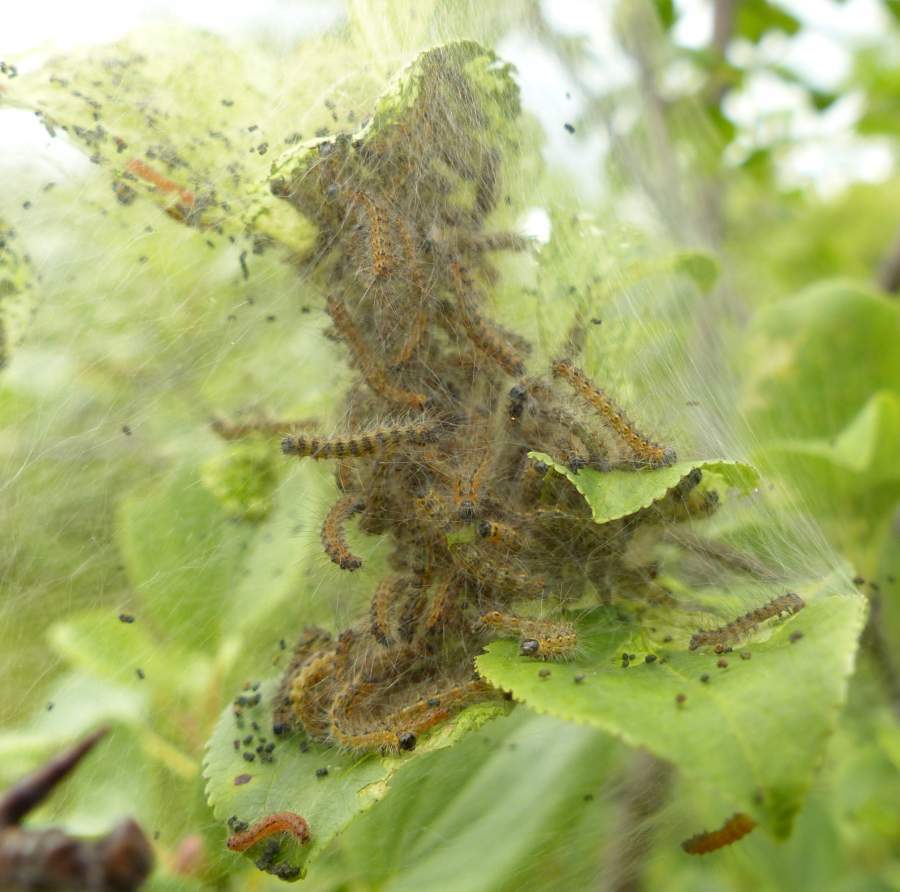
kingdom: Animalia
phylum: Arthropoda
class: Insecta
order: Lepidoptera
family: Erebidae
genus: Hyphantria
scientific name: Hyphantria cunea
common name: American white moth
